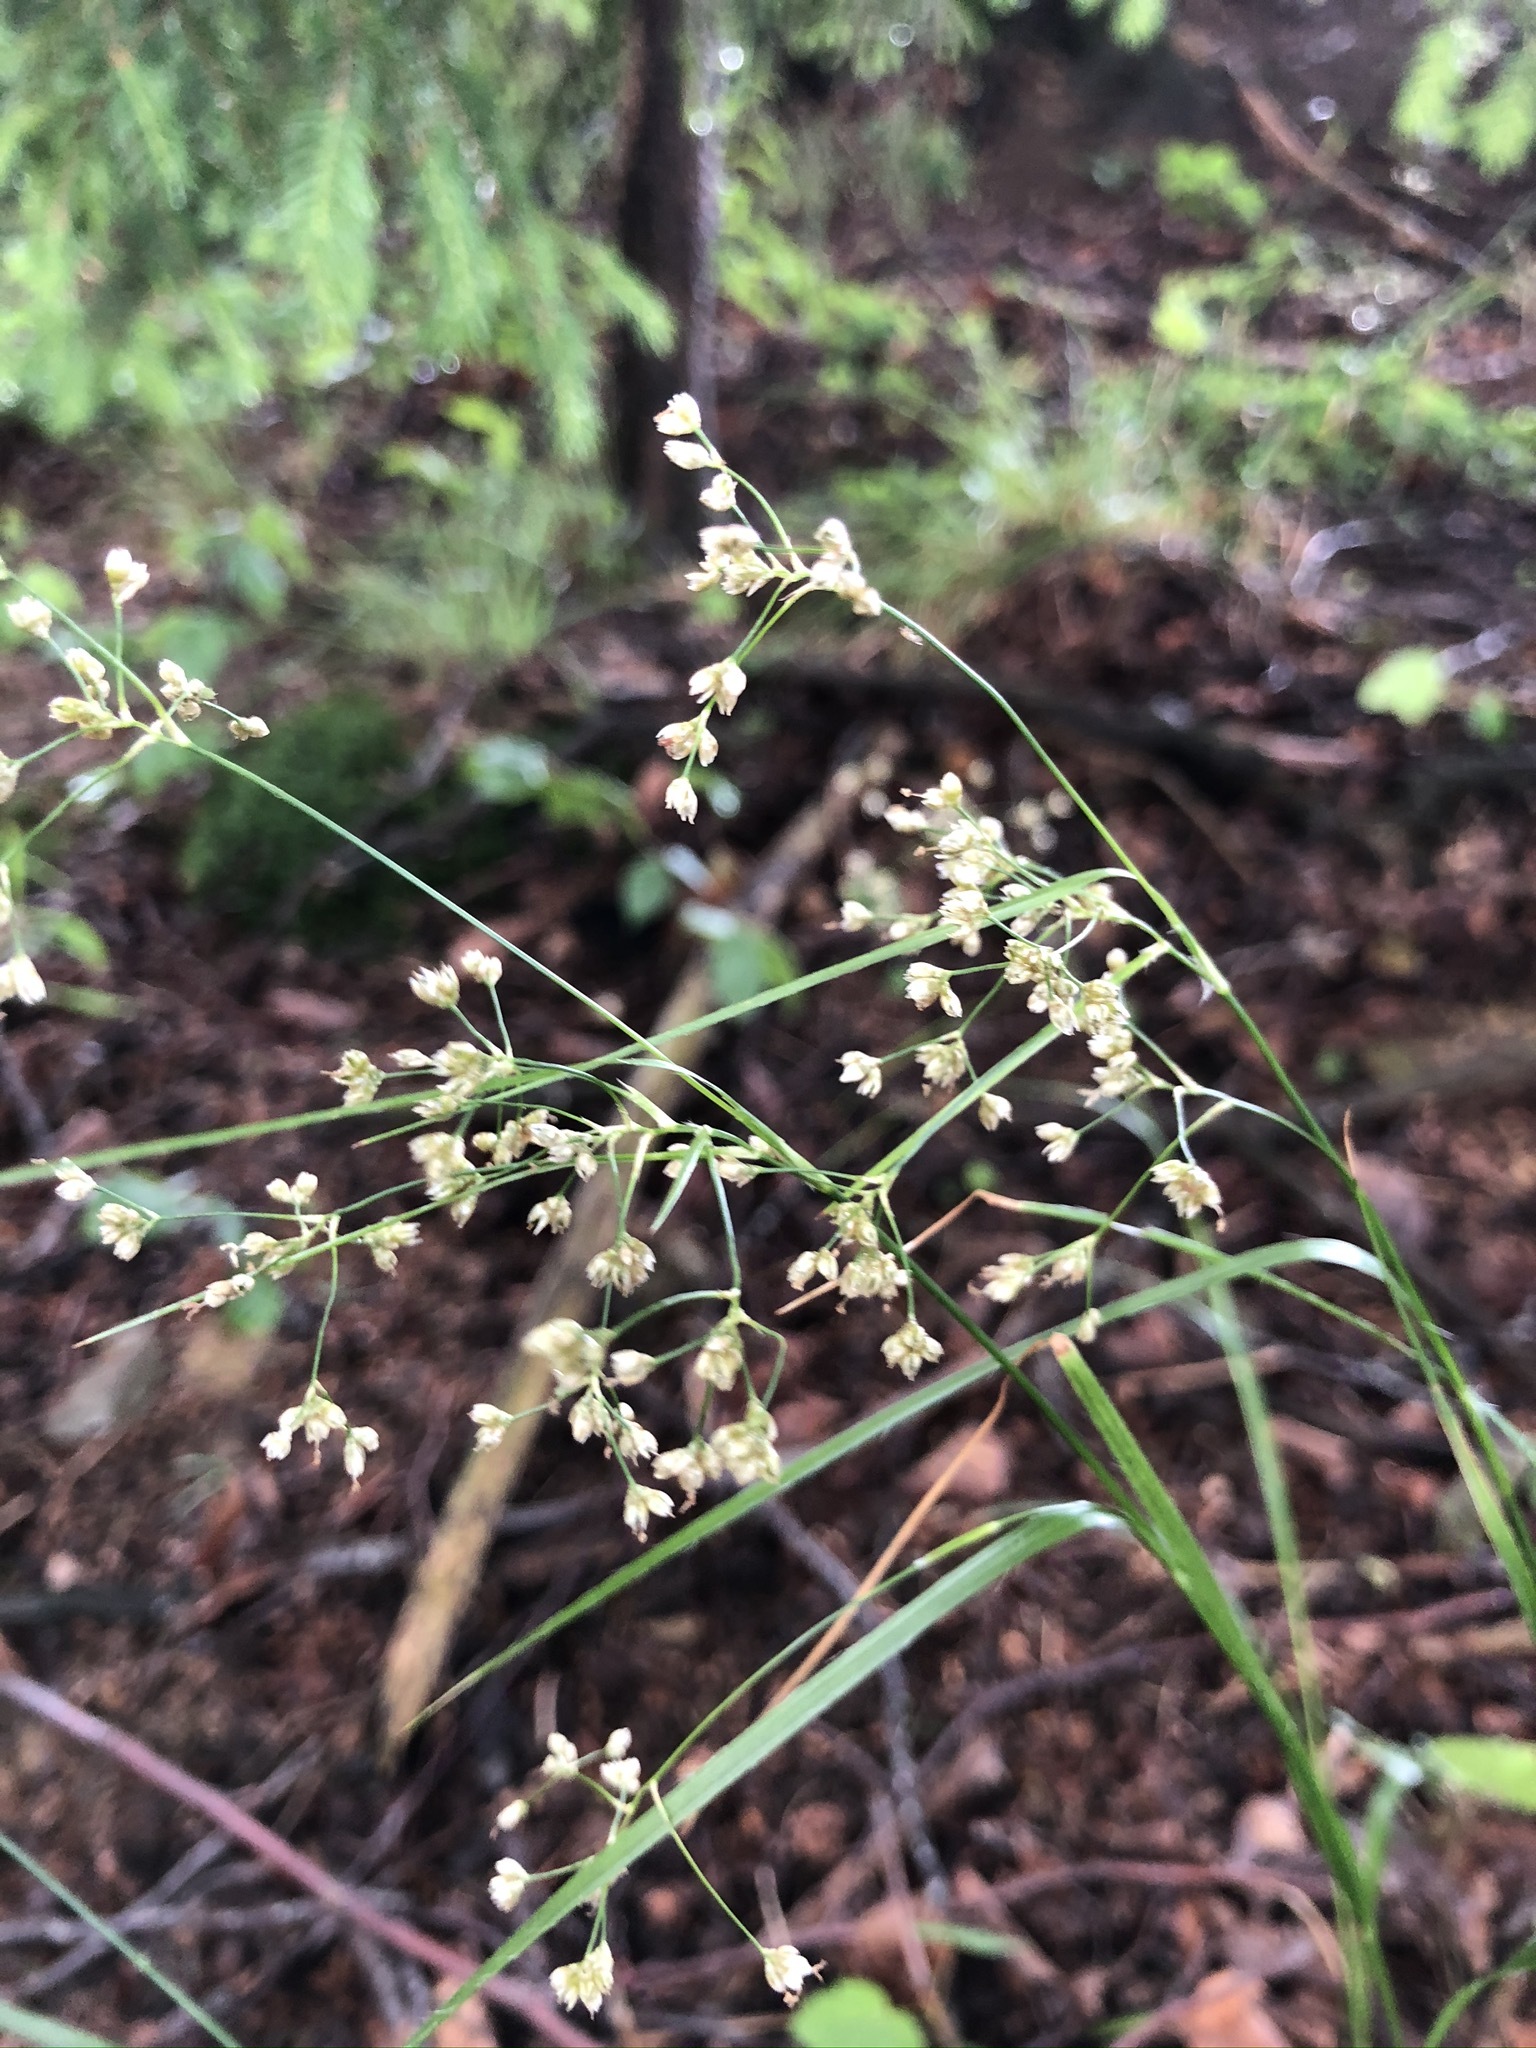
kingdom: Plantae
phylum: Tracheophyta
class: Liliopsida
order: Poales
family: Juncaceae
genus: Luzula
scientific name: Luzula luzuloides
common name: White wood-rush
